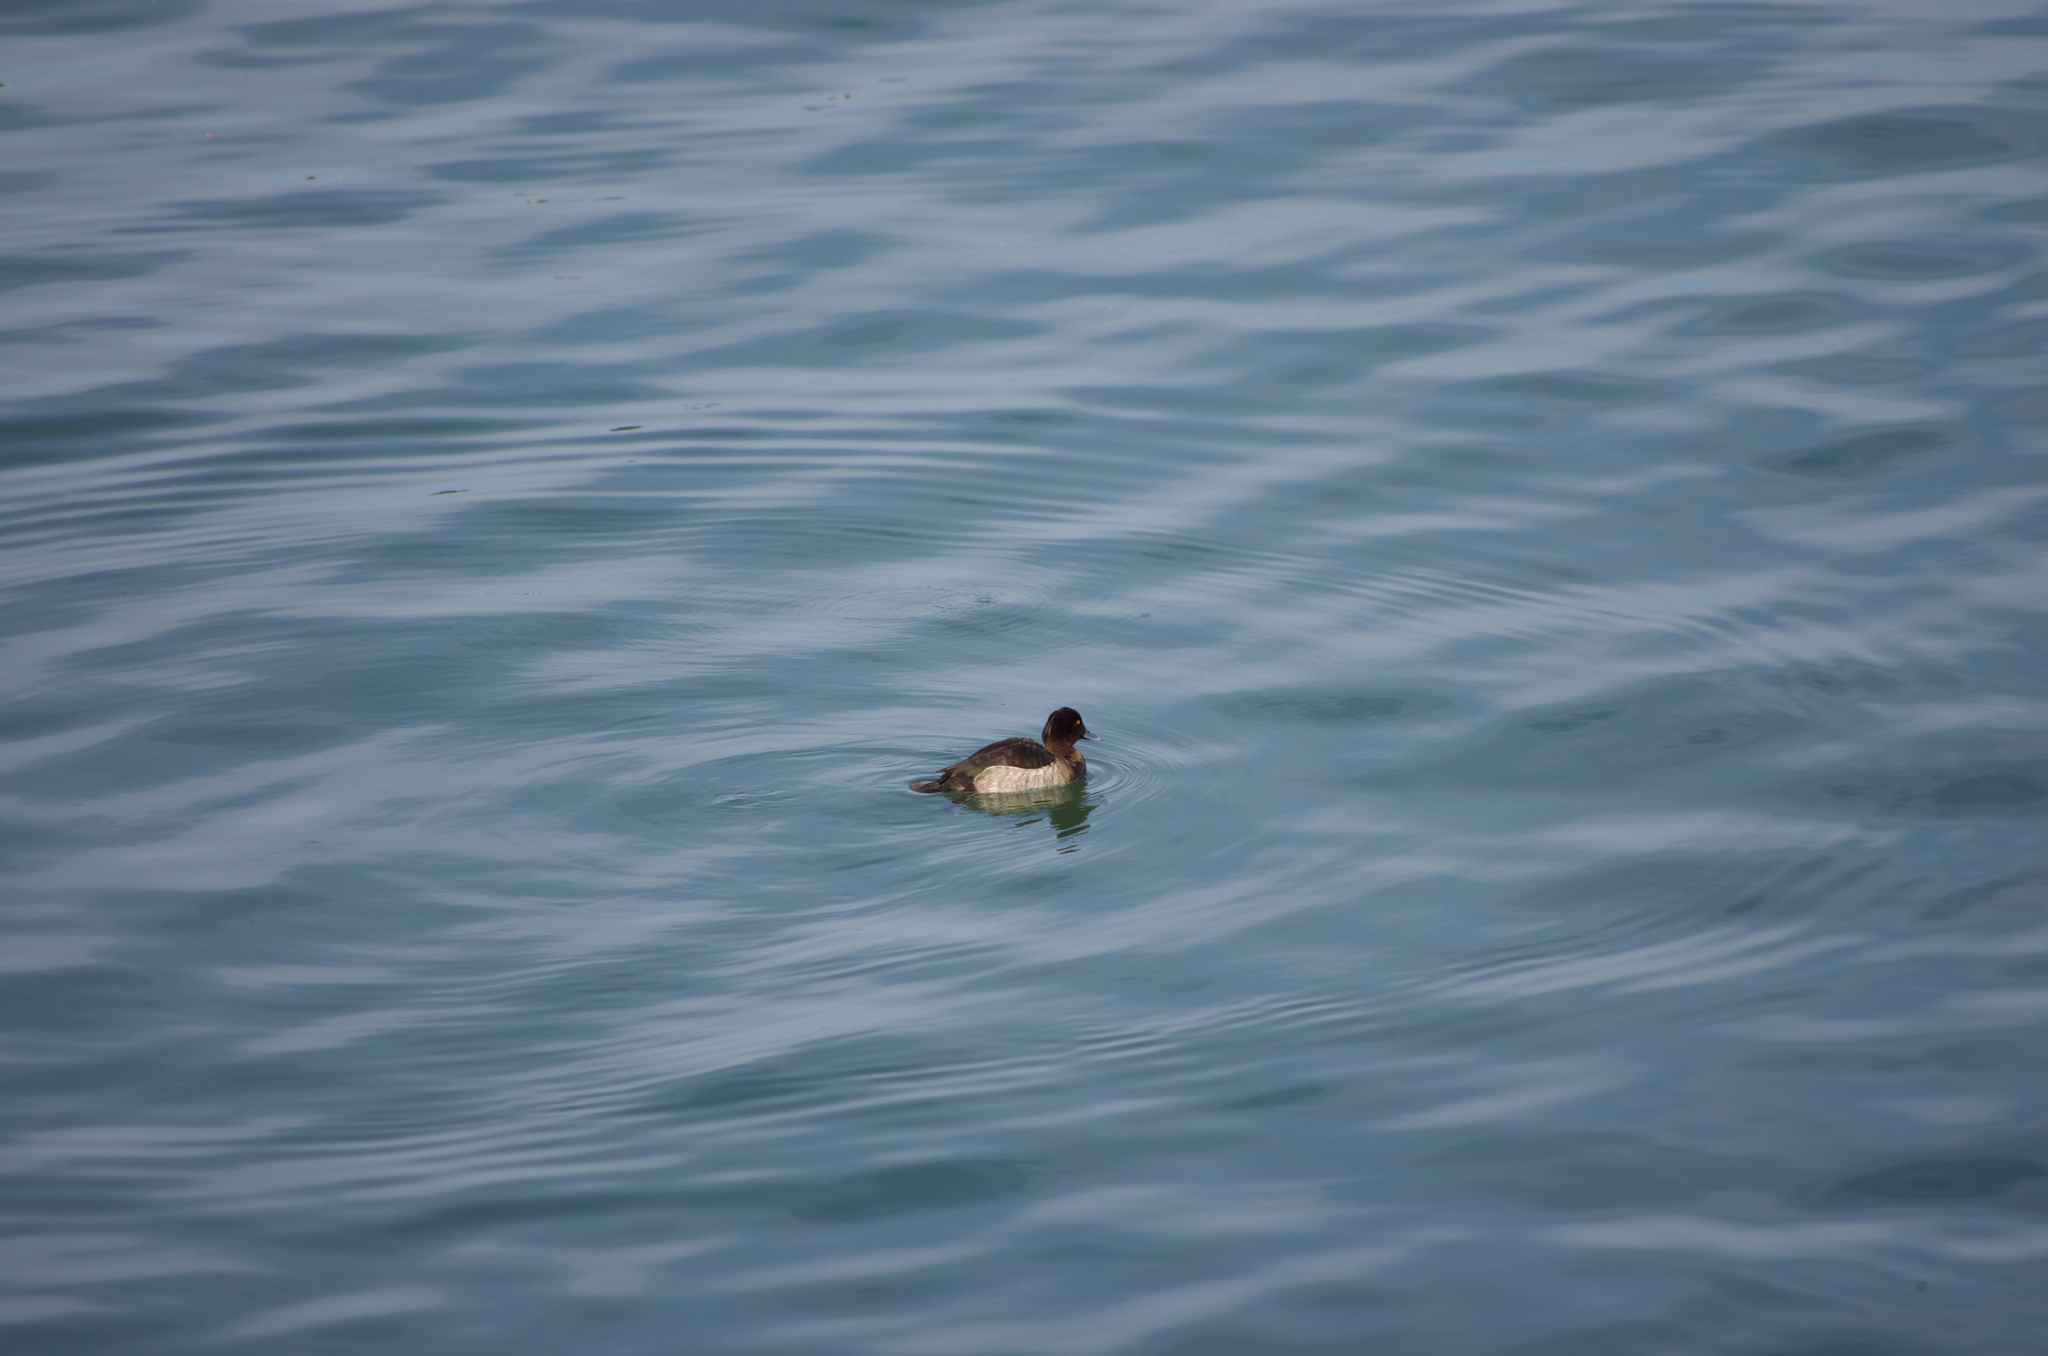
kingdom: Animalia
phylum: Chordata
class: Aves
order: Anseriformes
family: Anatidae
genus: Aythya
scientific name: Aythya fuligula
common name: Tufted duck
